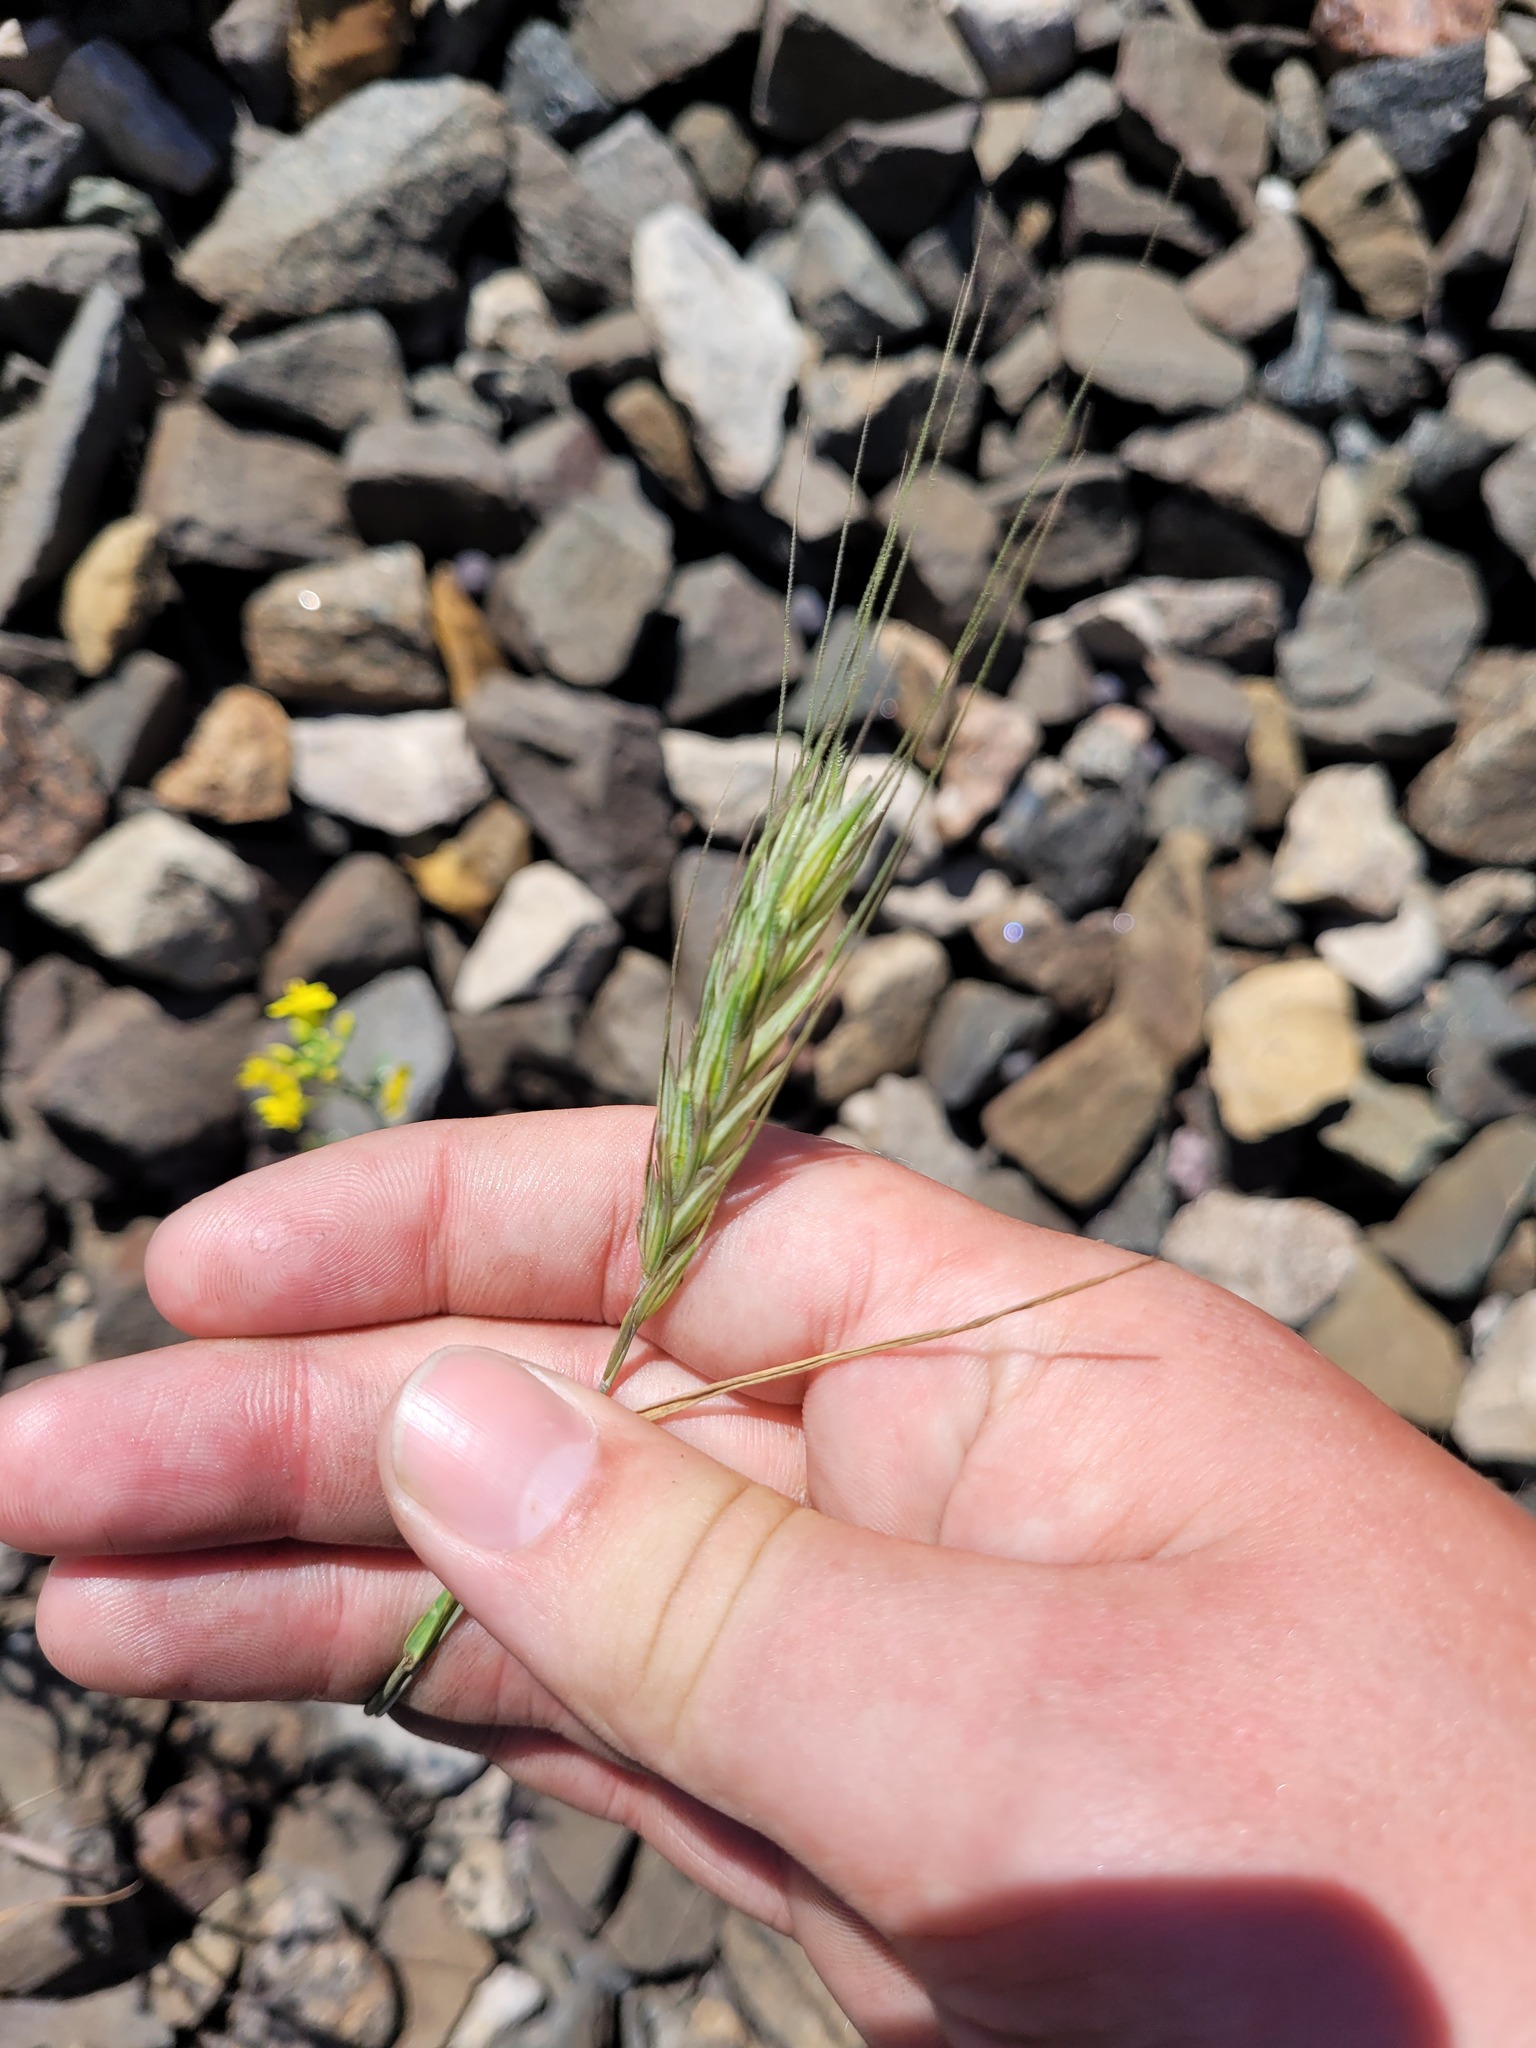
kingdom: Plantae
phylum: Tracheophyta
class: Liliopsida
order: Poales
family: Poaceae
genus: Secale
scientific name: Secale cereale
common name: Rye
